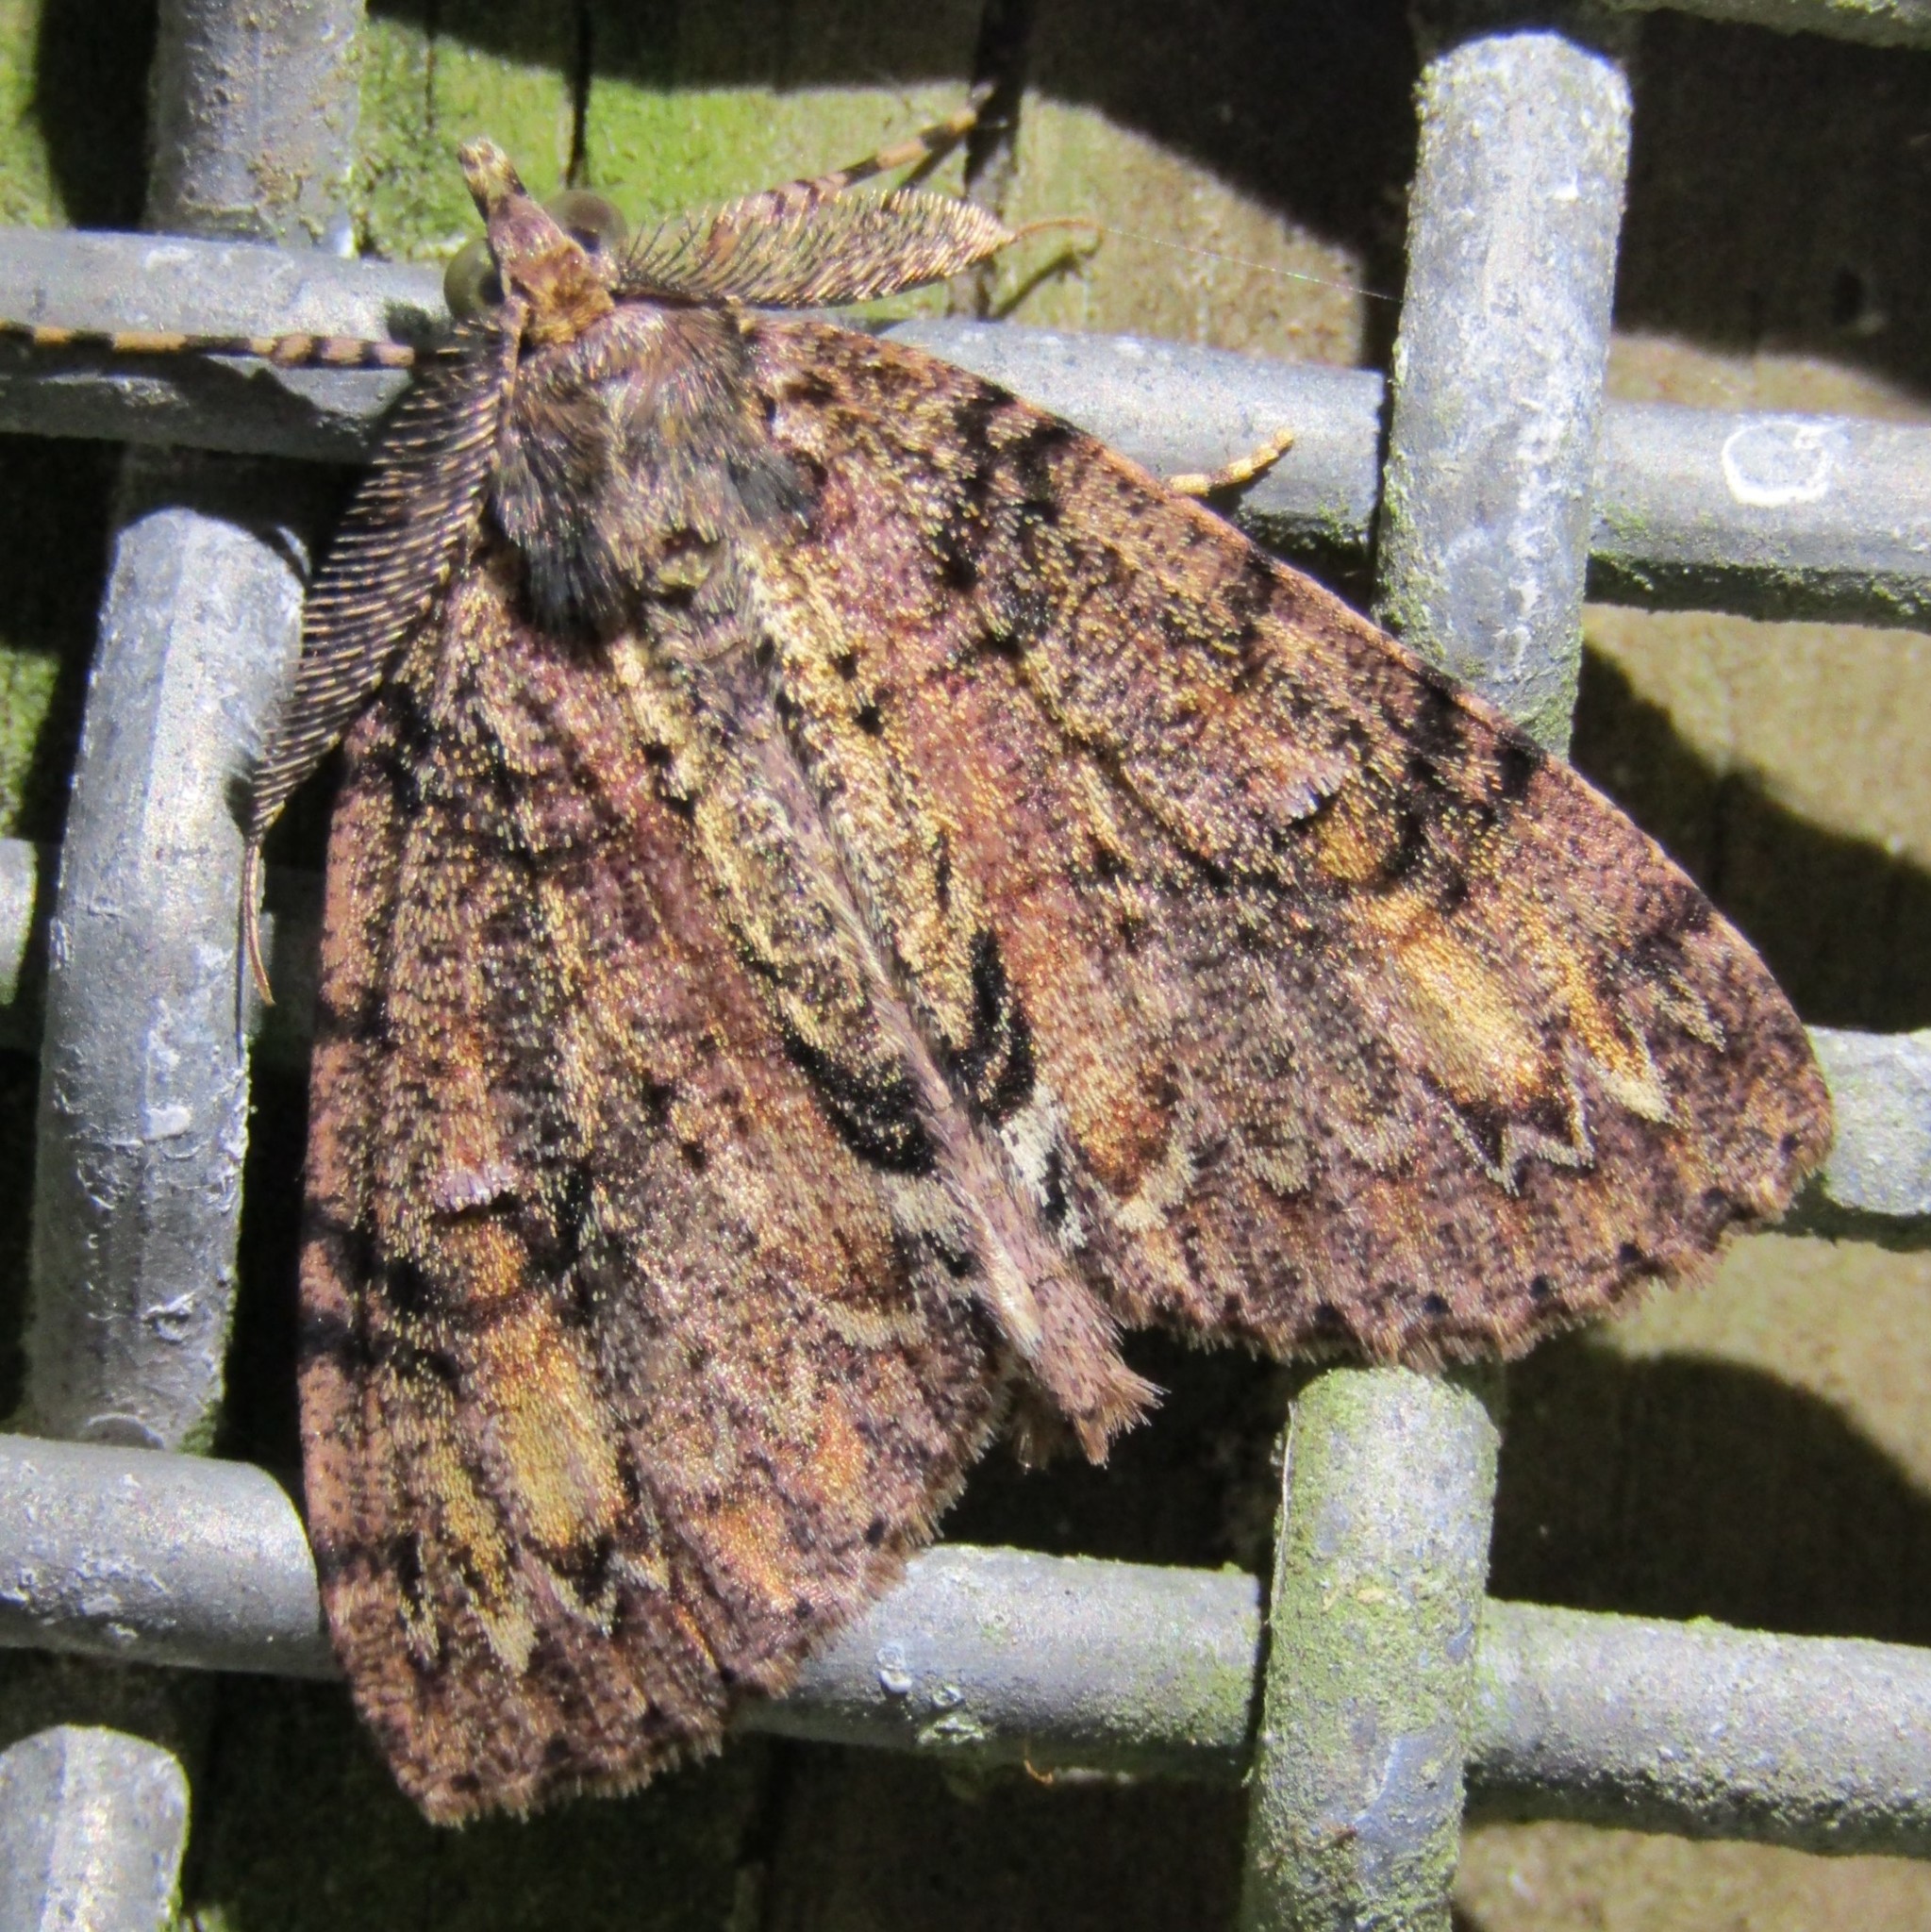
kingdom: Animalia
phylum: Arthropoda
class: Insecta
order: Lepidoptera
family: Geometridae
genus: Pseudocoremia
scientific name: Pseudocoremia suavis
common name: Common forest looper
